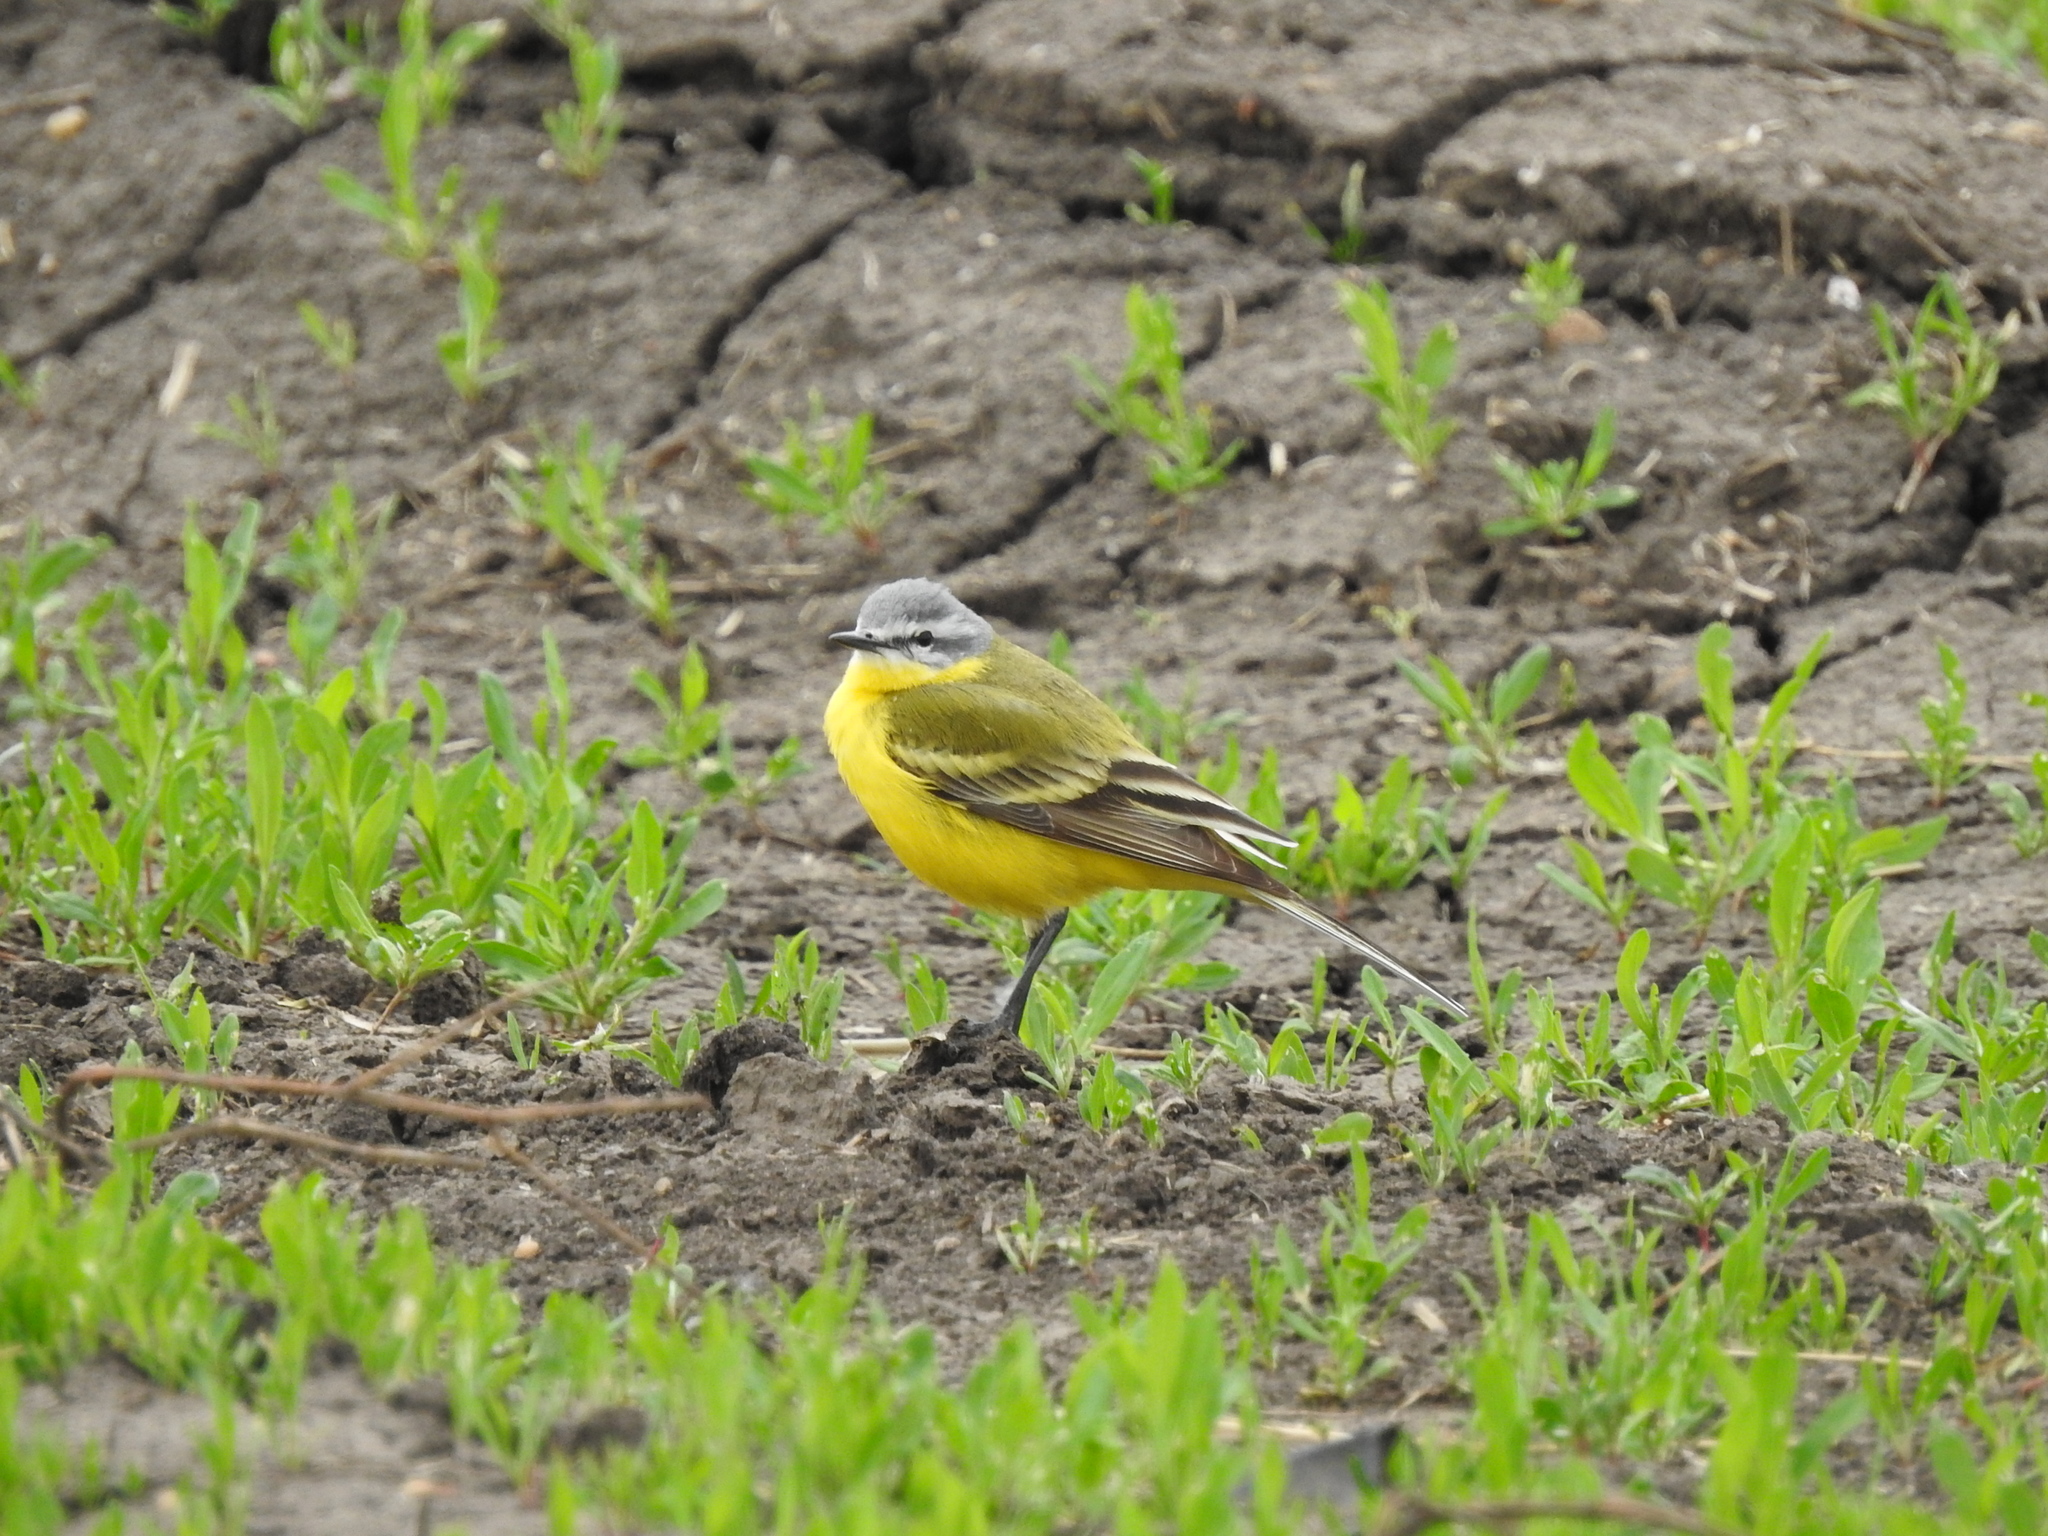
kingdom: Animalia
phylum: Chordata
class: Aves
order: Passeriformes
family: Motacillidae
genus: Motacilla
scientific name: Motacilla flava
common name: Western yellow wagtail
